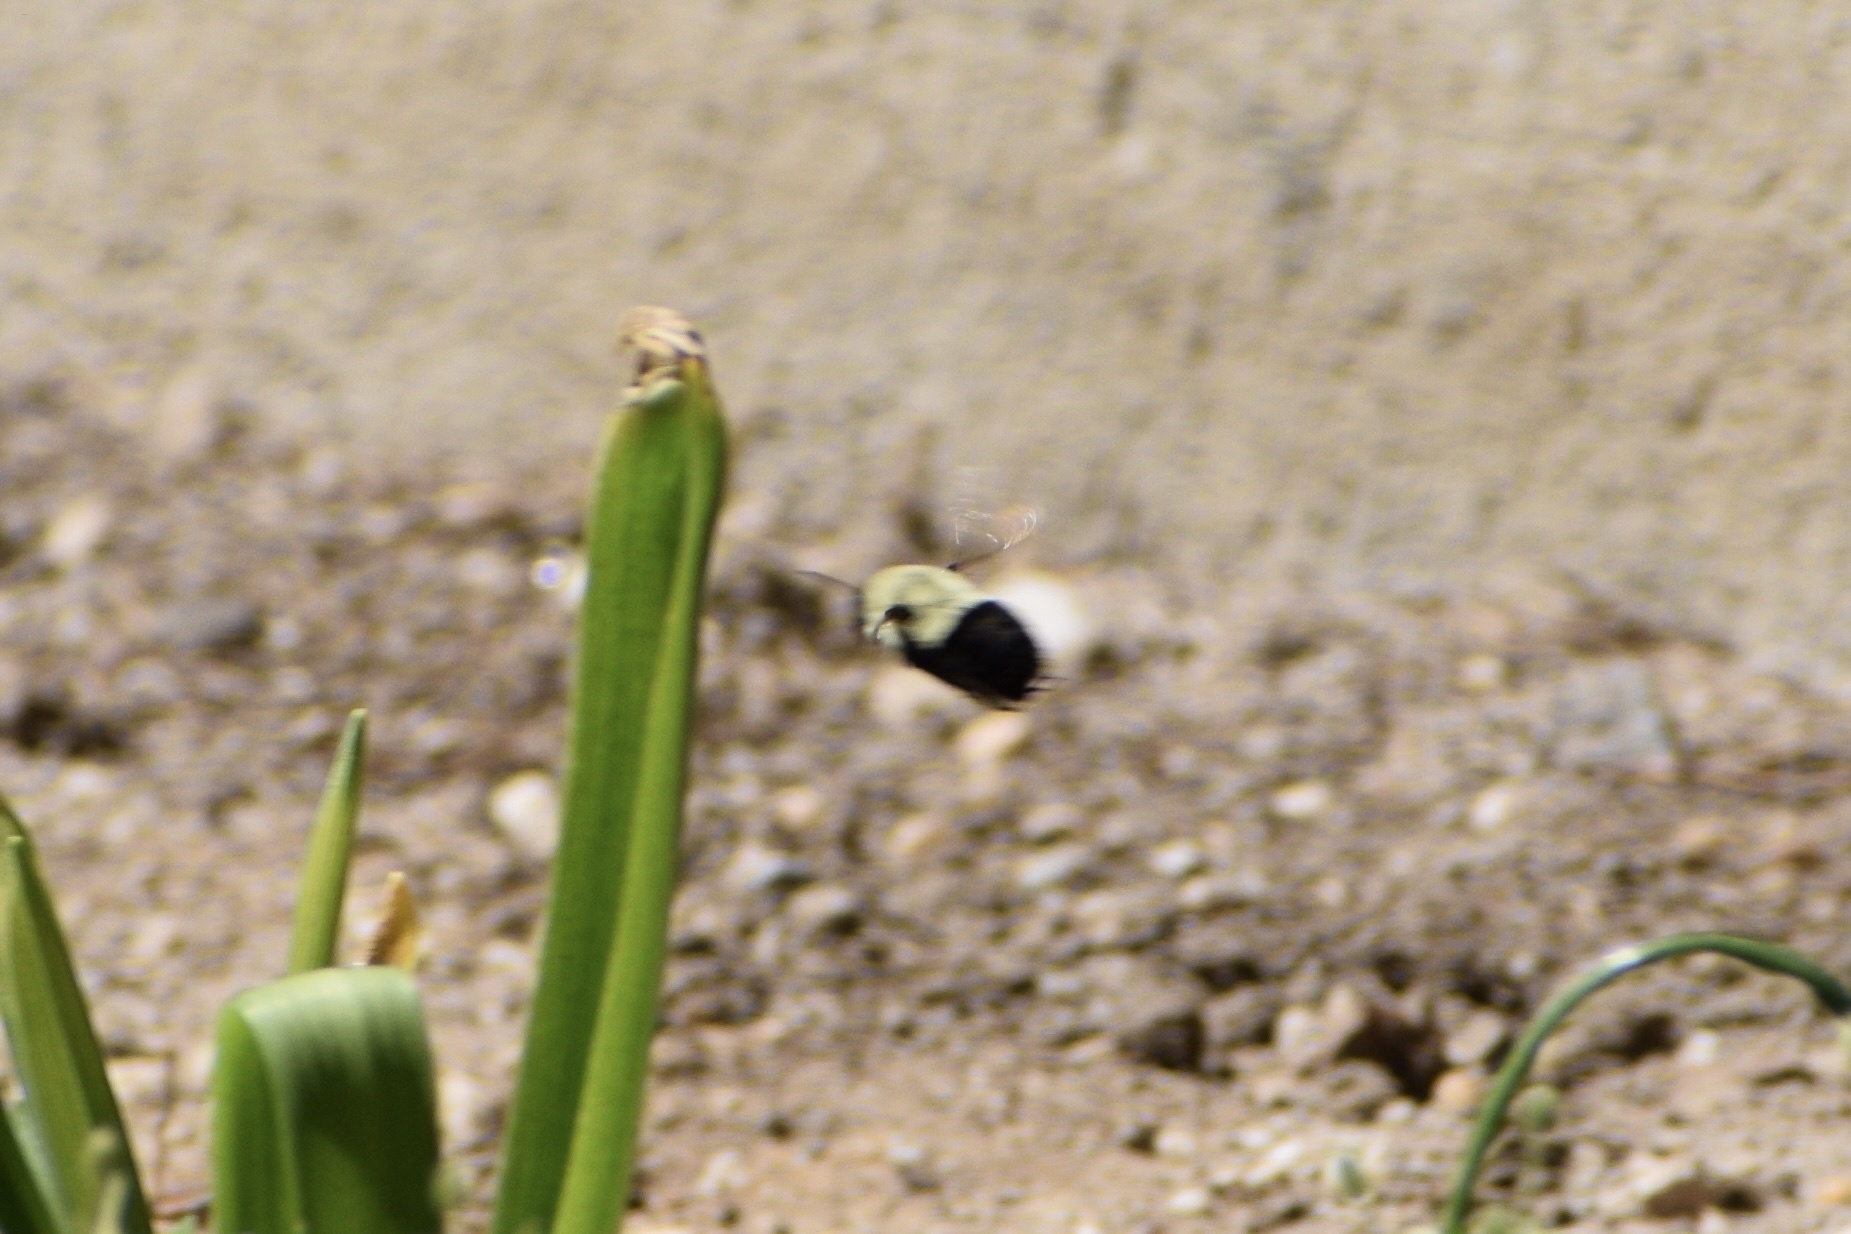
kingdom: Animalia
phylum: Arthropoda
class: Insecta
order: Hymenoptera
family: Apidae
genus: Bombus
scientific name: Bombus impatiens
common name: Common eastern bumble bee
